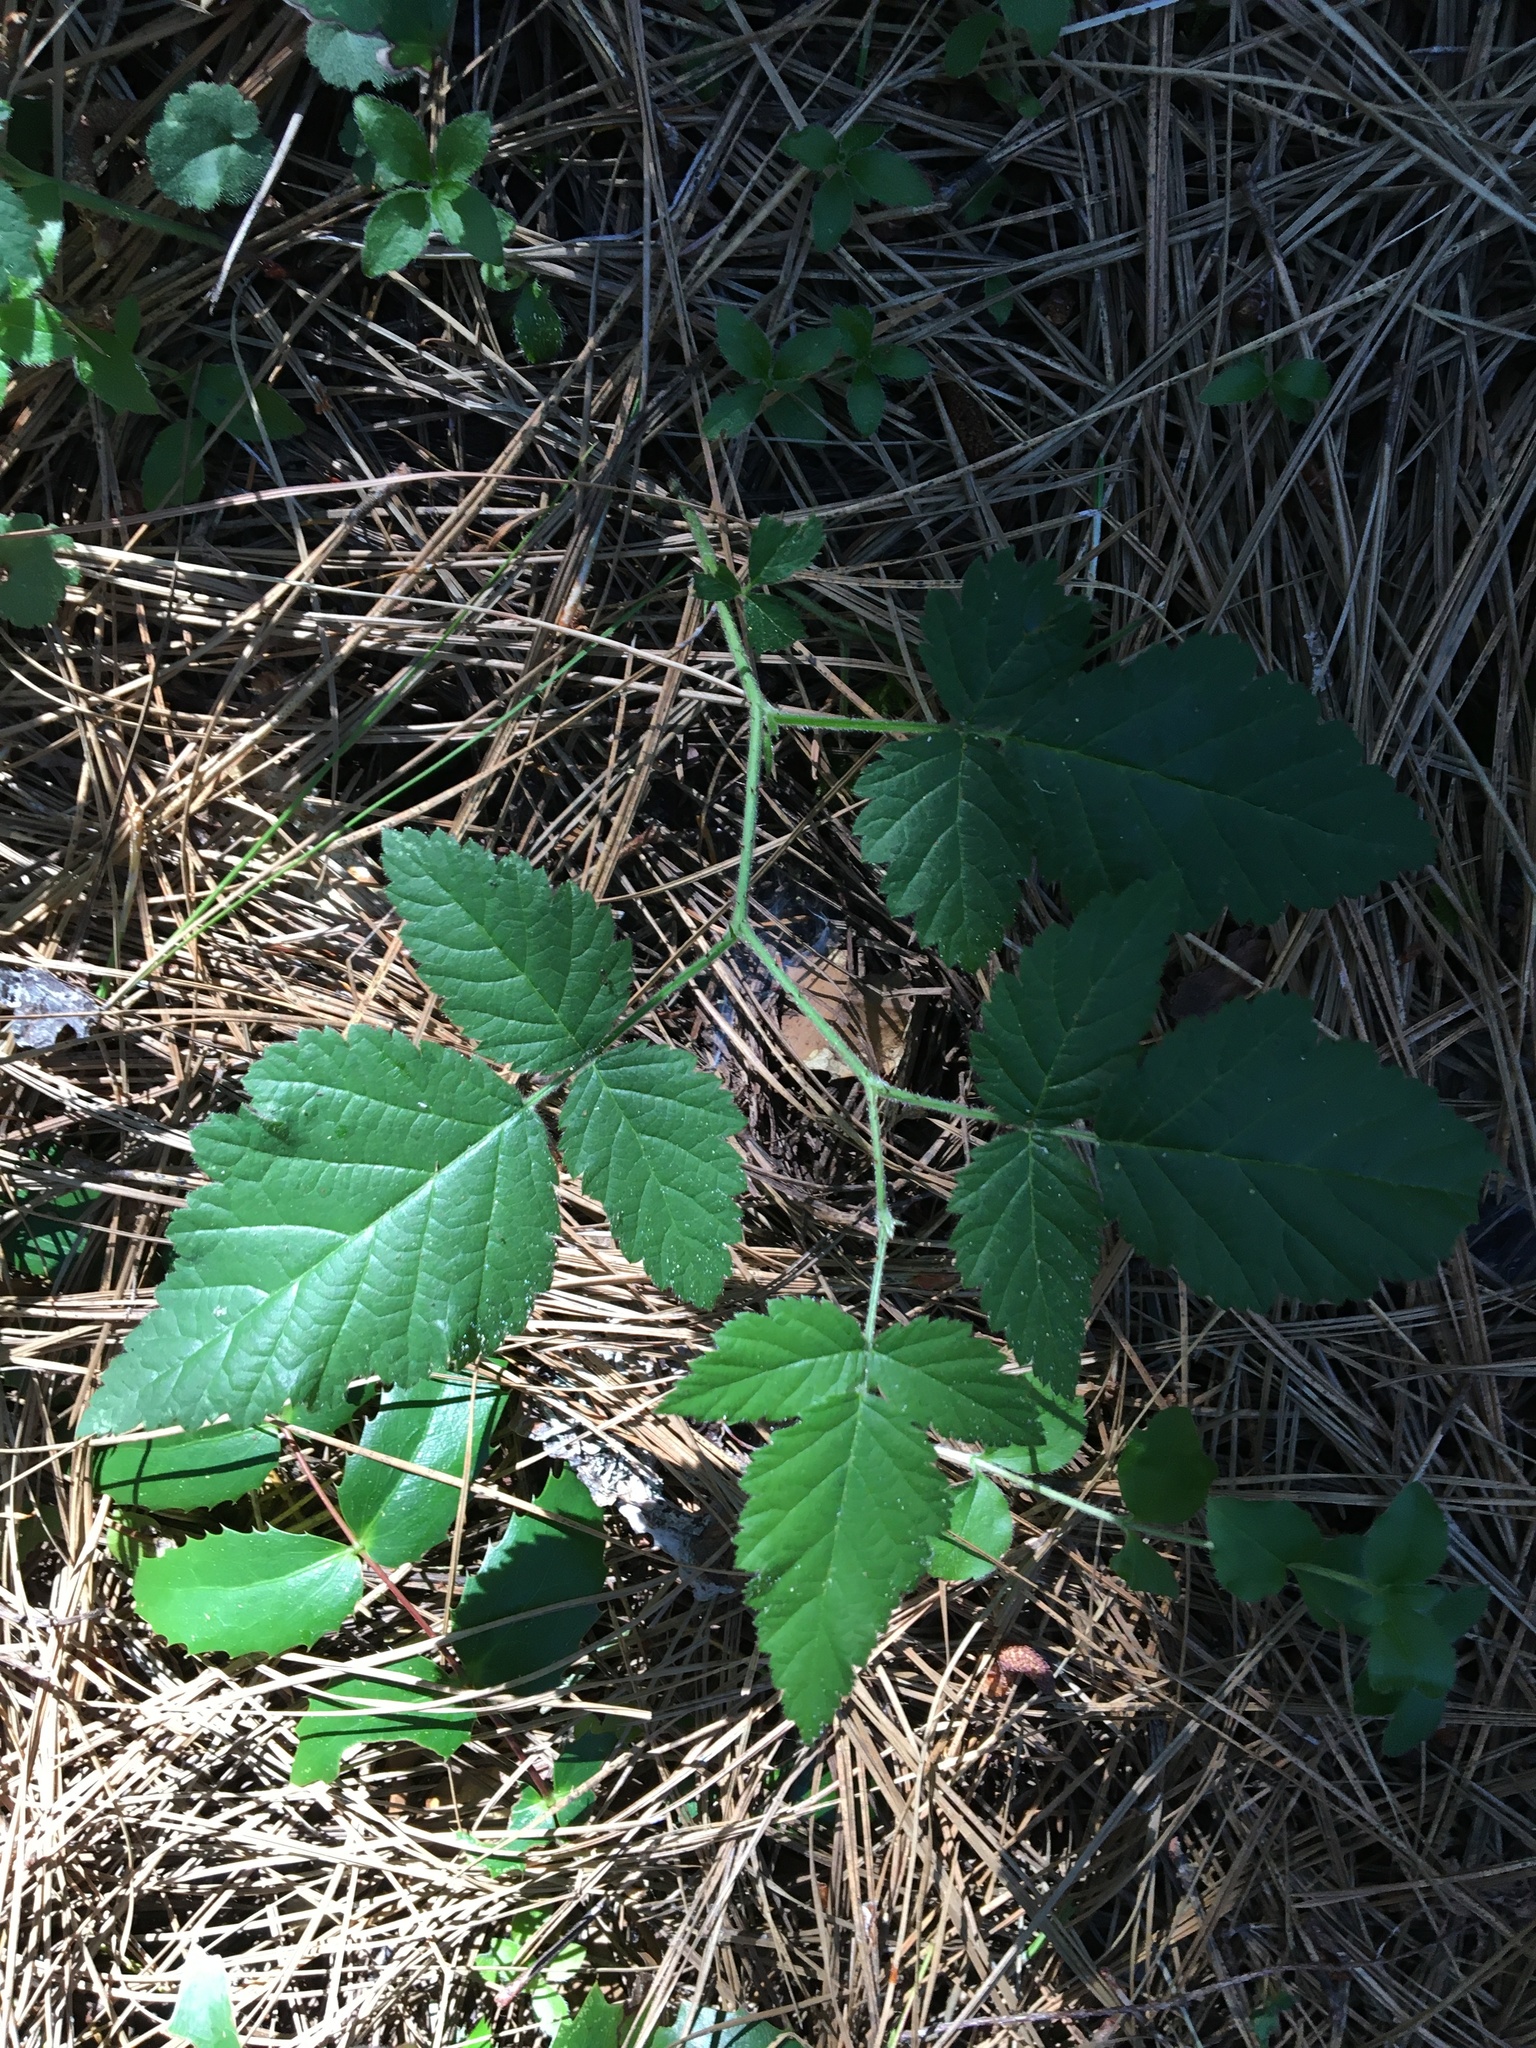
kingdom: Plantae
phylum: Tracheophyta
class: Magnoliopsida
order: Rosales
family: Rosaceae
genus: Rubus
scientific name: Rubus ursinus
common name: Pacific blackberry
